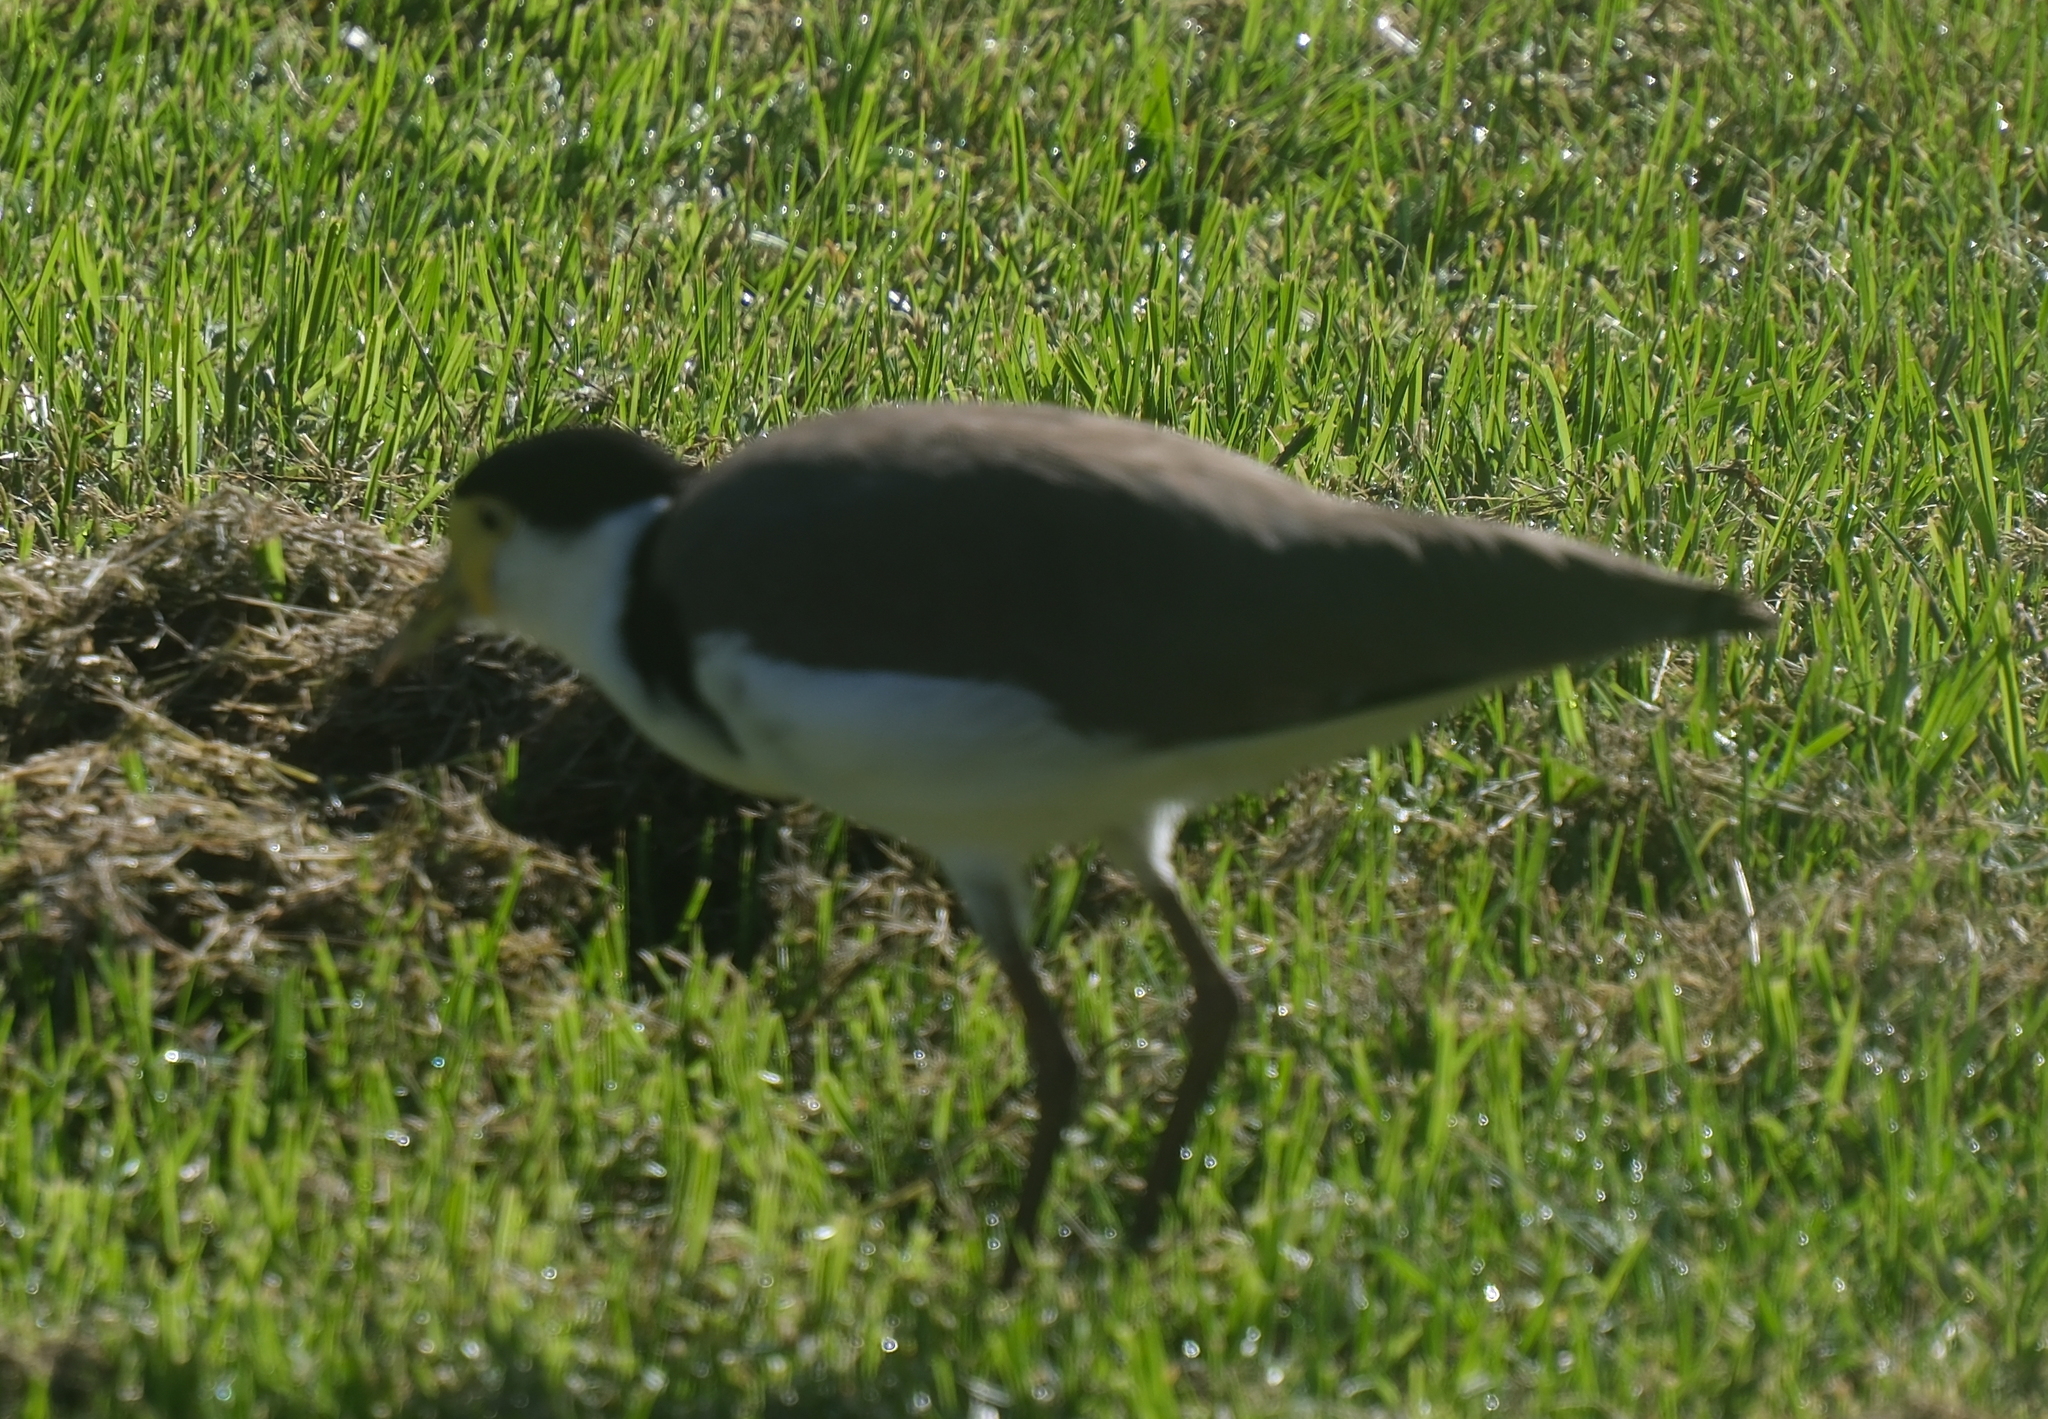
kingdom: Animalia
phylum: Chordata
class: Aves
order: Charadriiformes
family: Charadriidae
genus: Vanellus
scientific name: Vanellus miles
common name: Masked lapwing
